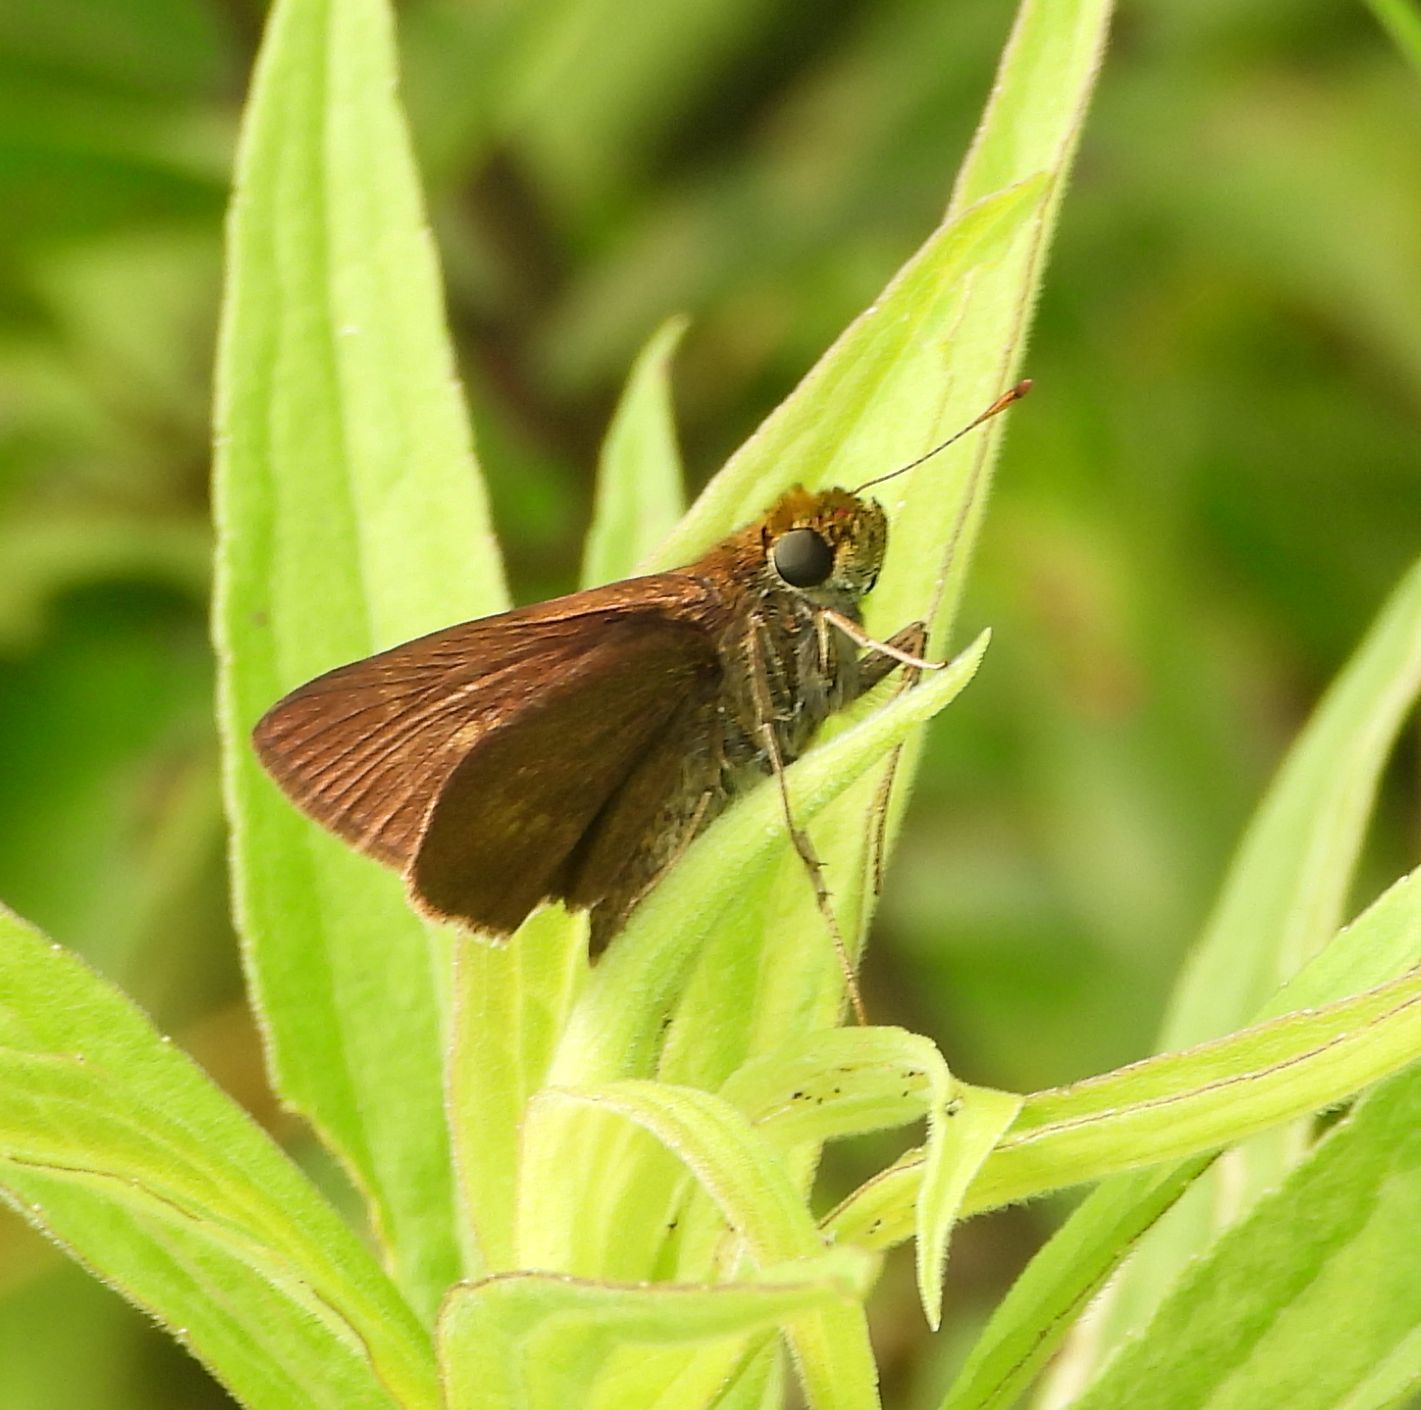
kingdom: Animalia
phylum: Arthropoda
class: Insecta
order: Lepidoptera
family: Hesperiidae
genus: Euphyes
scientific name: Euphyes vestris
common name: Dun skipper
